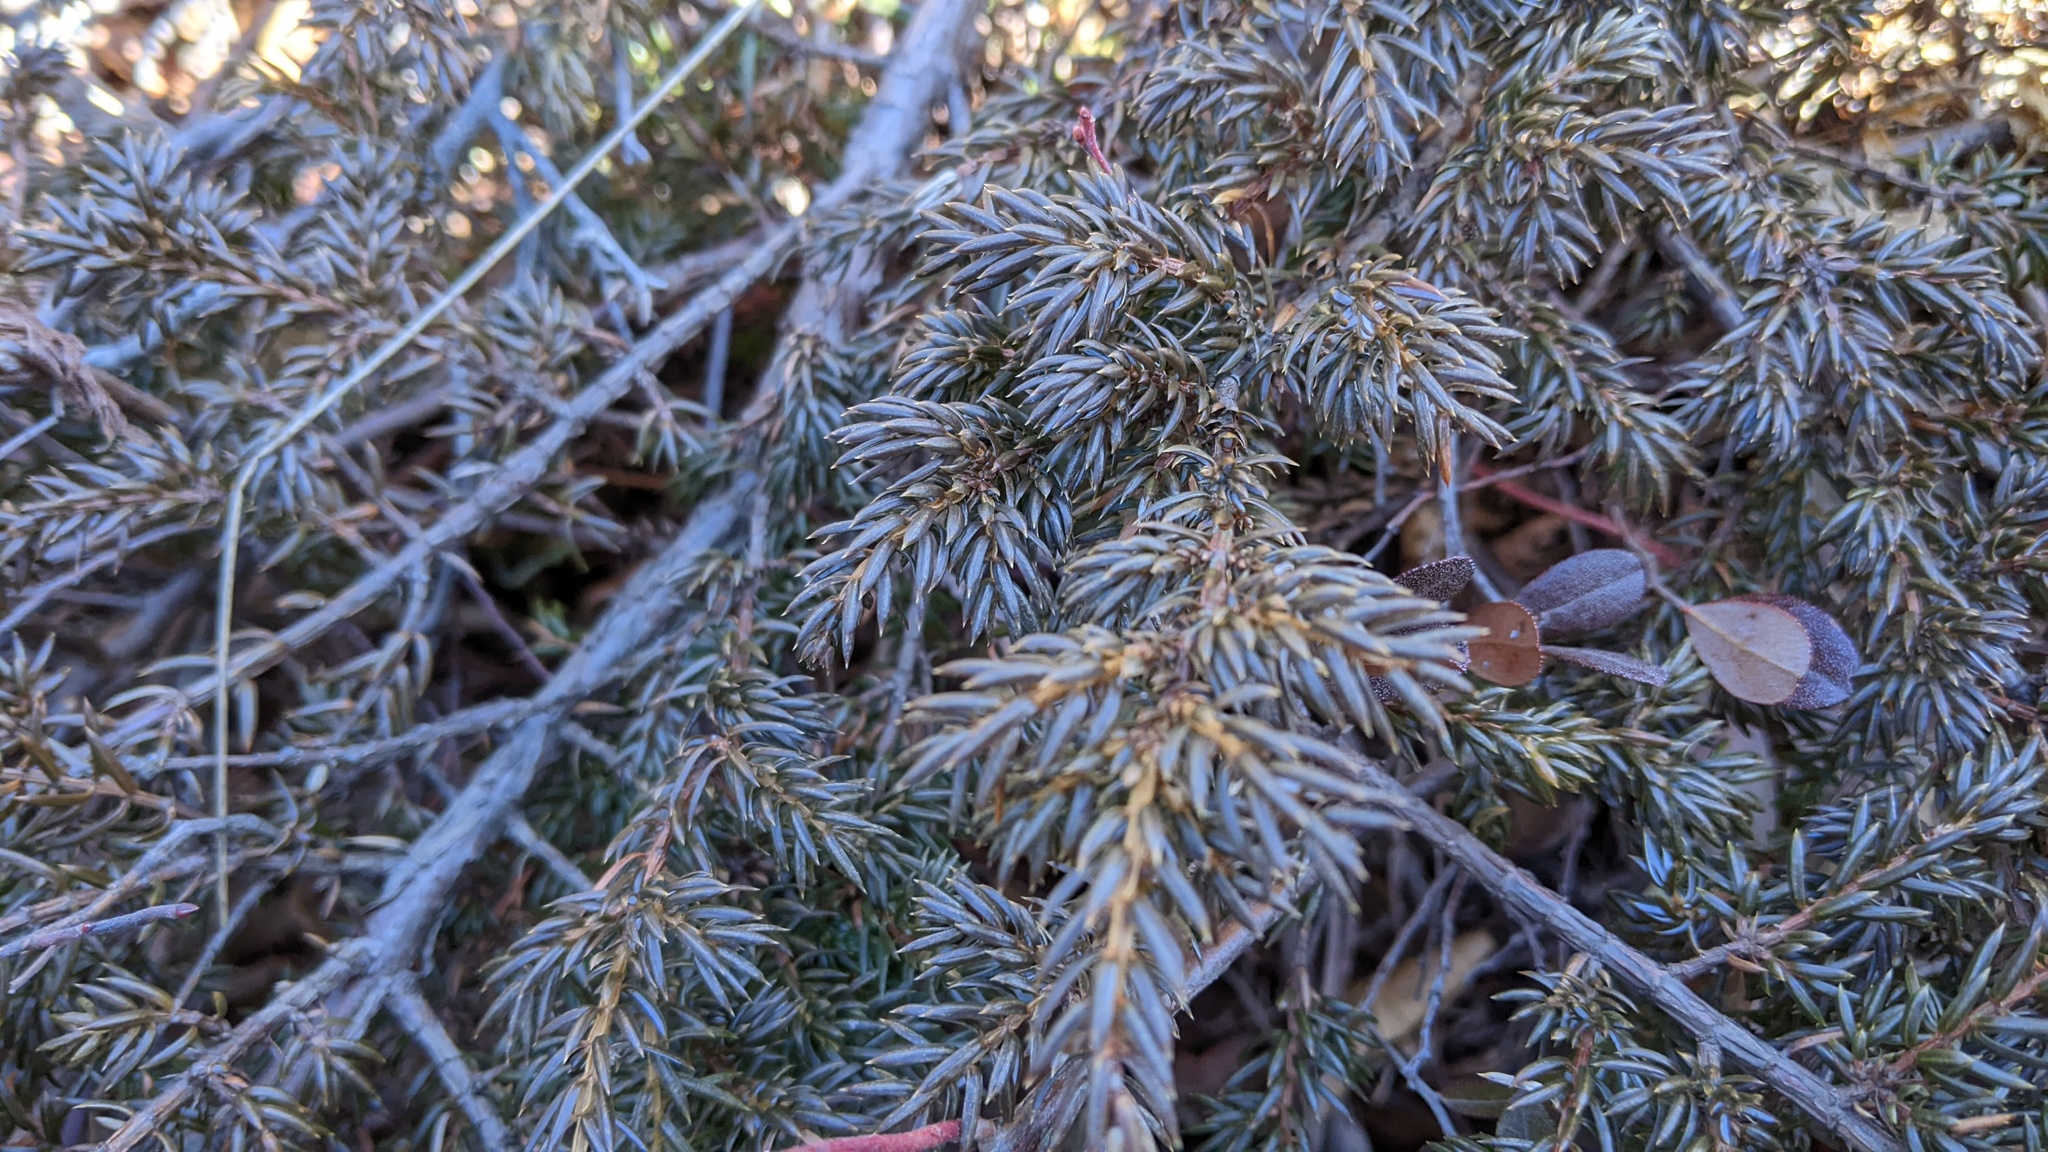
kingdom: Plantae
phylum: Tracheophyta
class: Pinopsida
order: Pinales
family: Cupressaceae
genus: Juniperus
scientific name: Juniperus communis
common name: Common juniper
